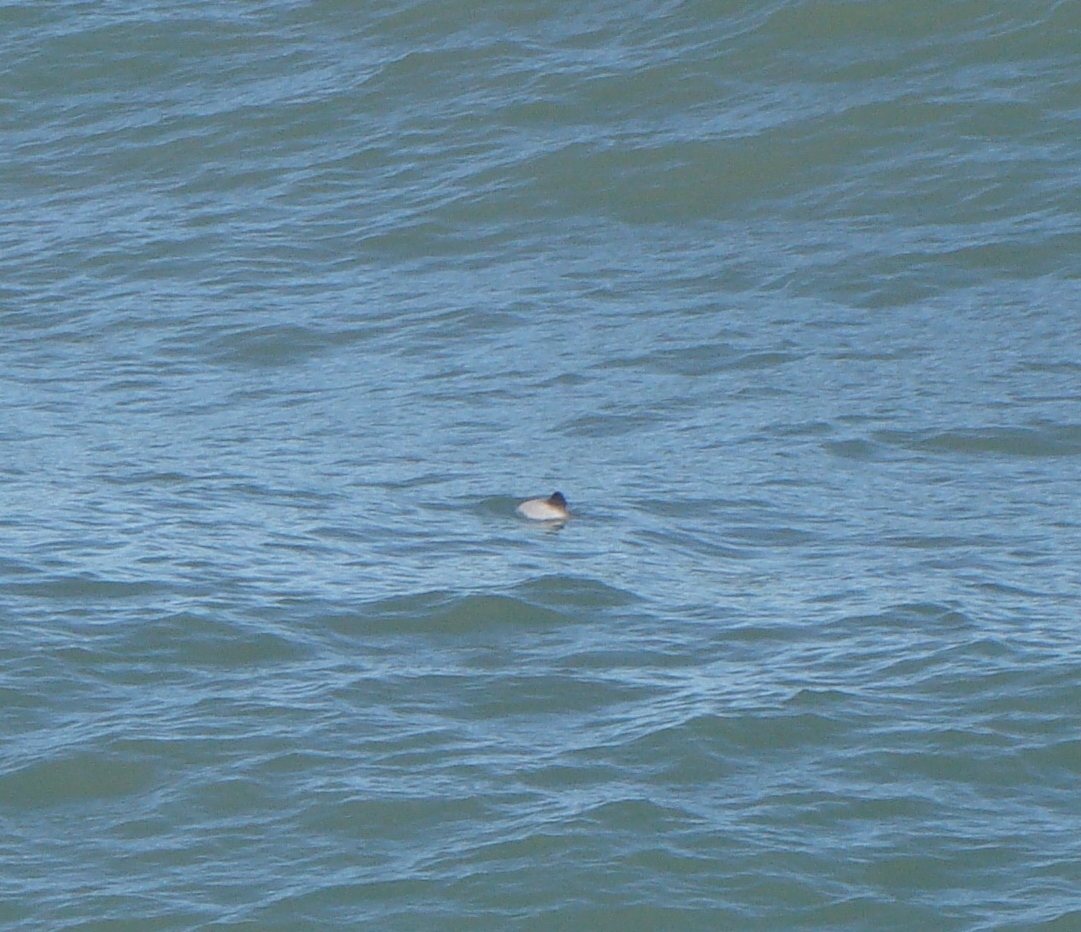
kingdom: Animalia
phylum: Chordata
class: Mammalia
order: Cetacea
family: Delphinidae
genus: Cephalorhynchus
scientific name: Cephalorhynchus hectori
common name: Hector's dolphin
